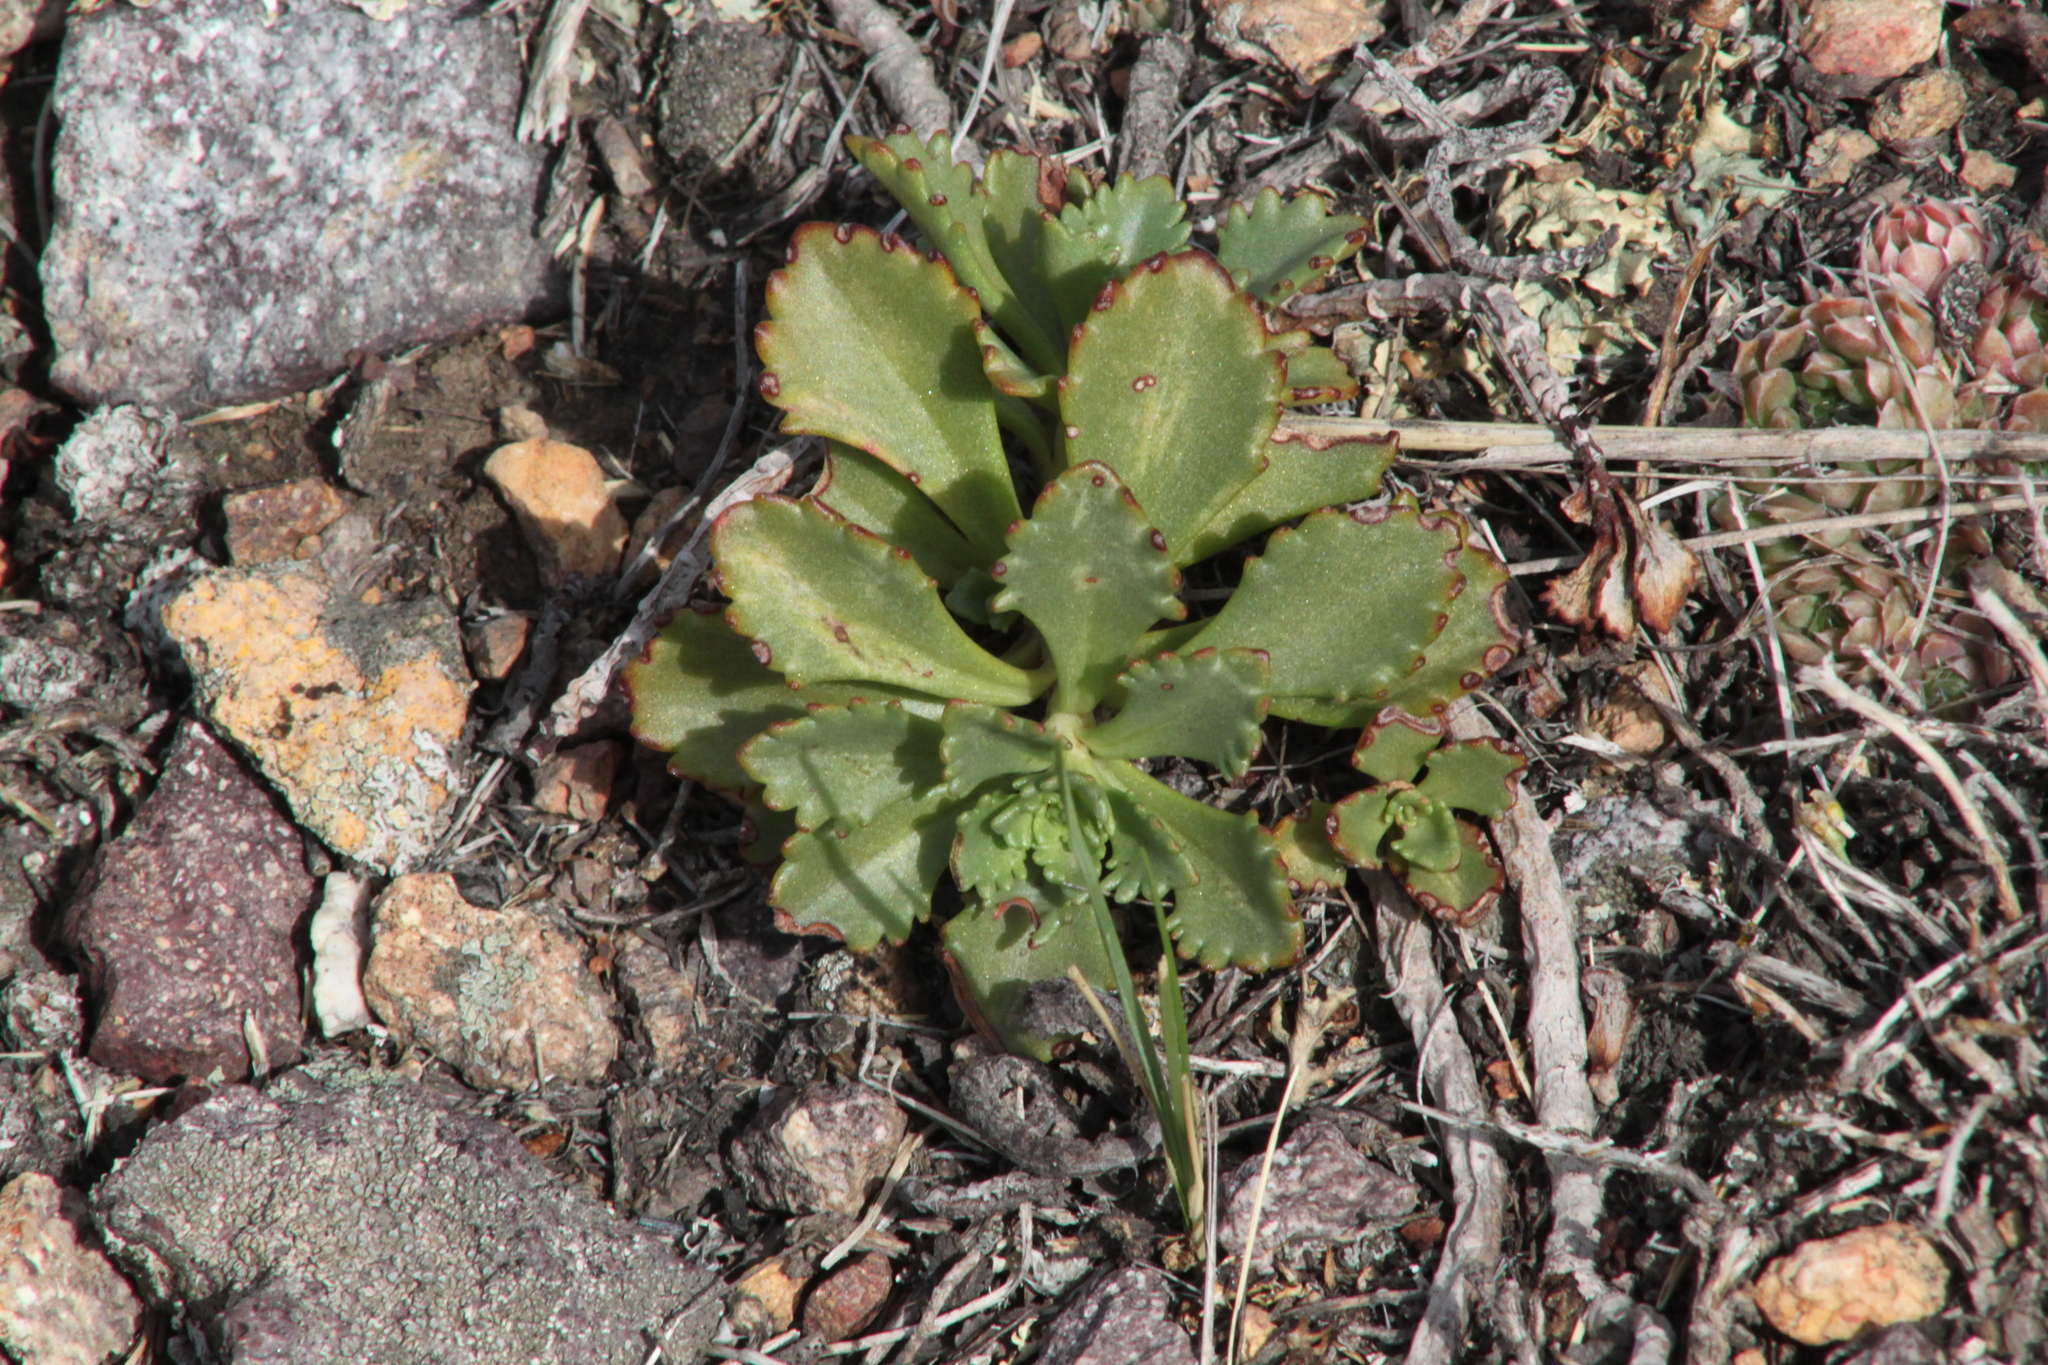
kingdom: Plantae
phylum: Tracheophyta
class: Magnoliopsida
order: Saxifragales
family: Crassulaceae
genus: Phedimus
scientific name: Phedimus hybridus
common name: Hybrid stonecrop
